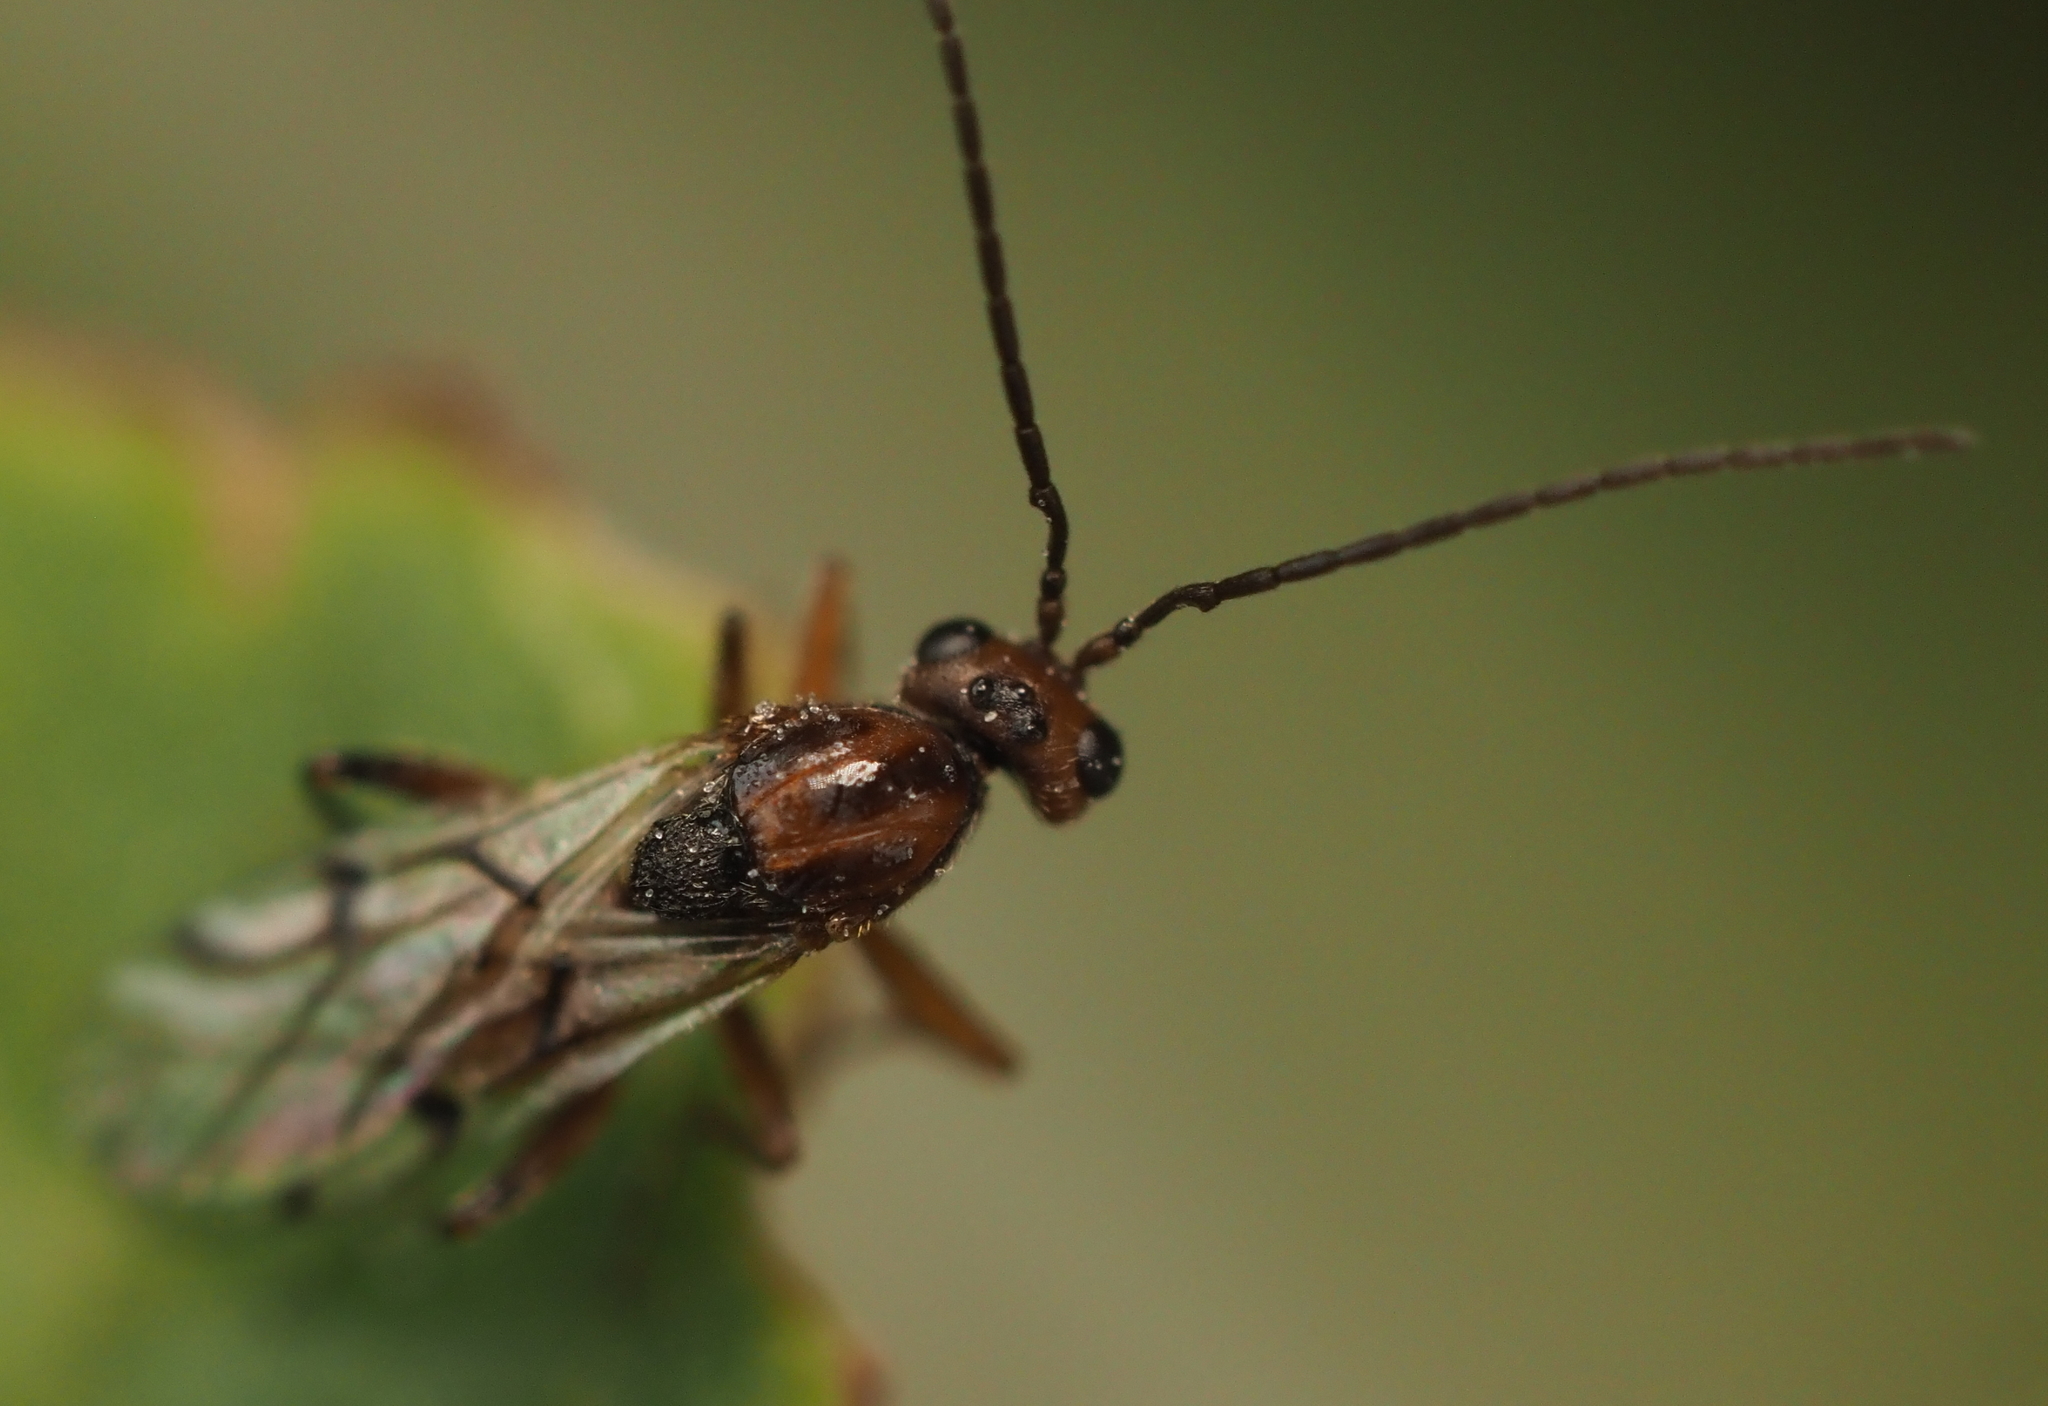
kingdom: Animalia
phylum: Arthropoda
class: Insecta
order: Hymenoptera
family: Cynipidae
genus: Belonocnema
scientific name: Belonocnema kinseyi
